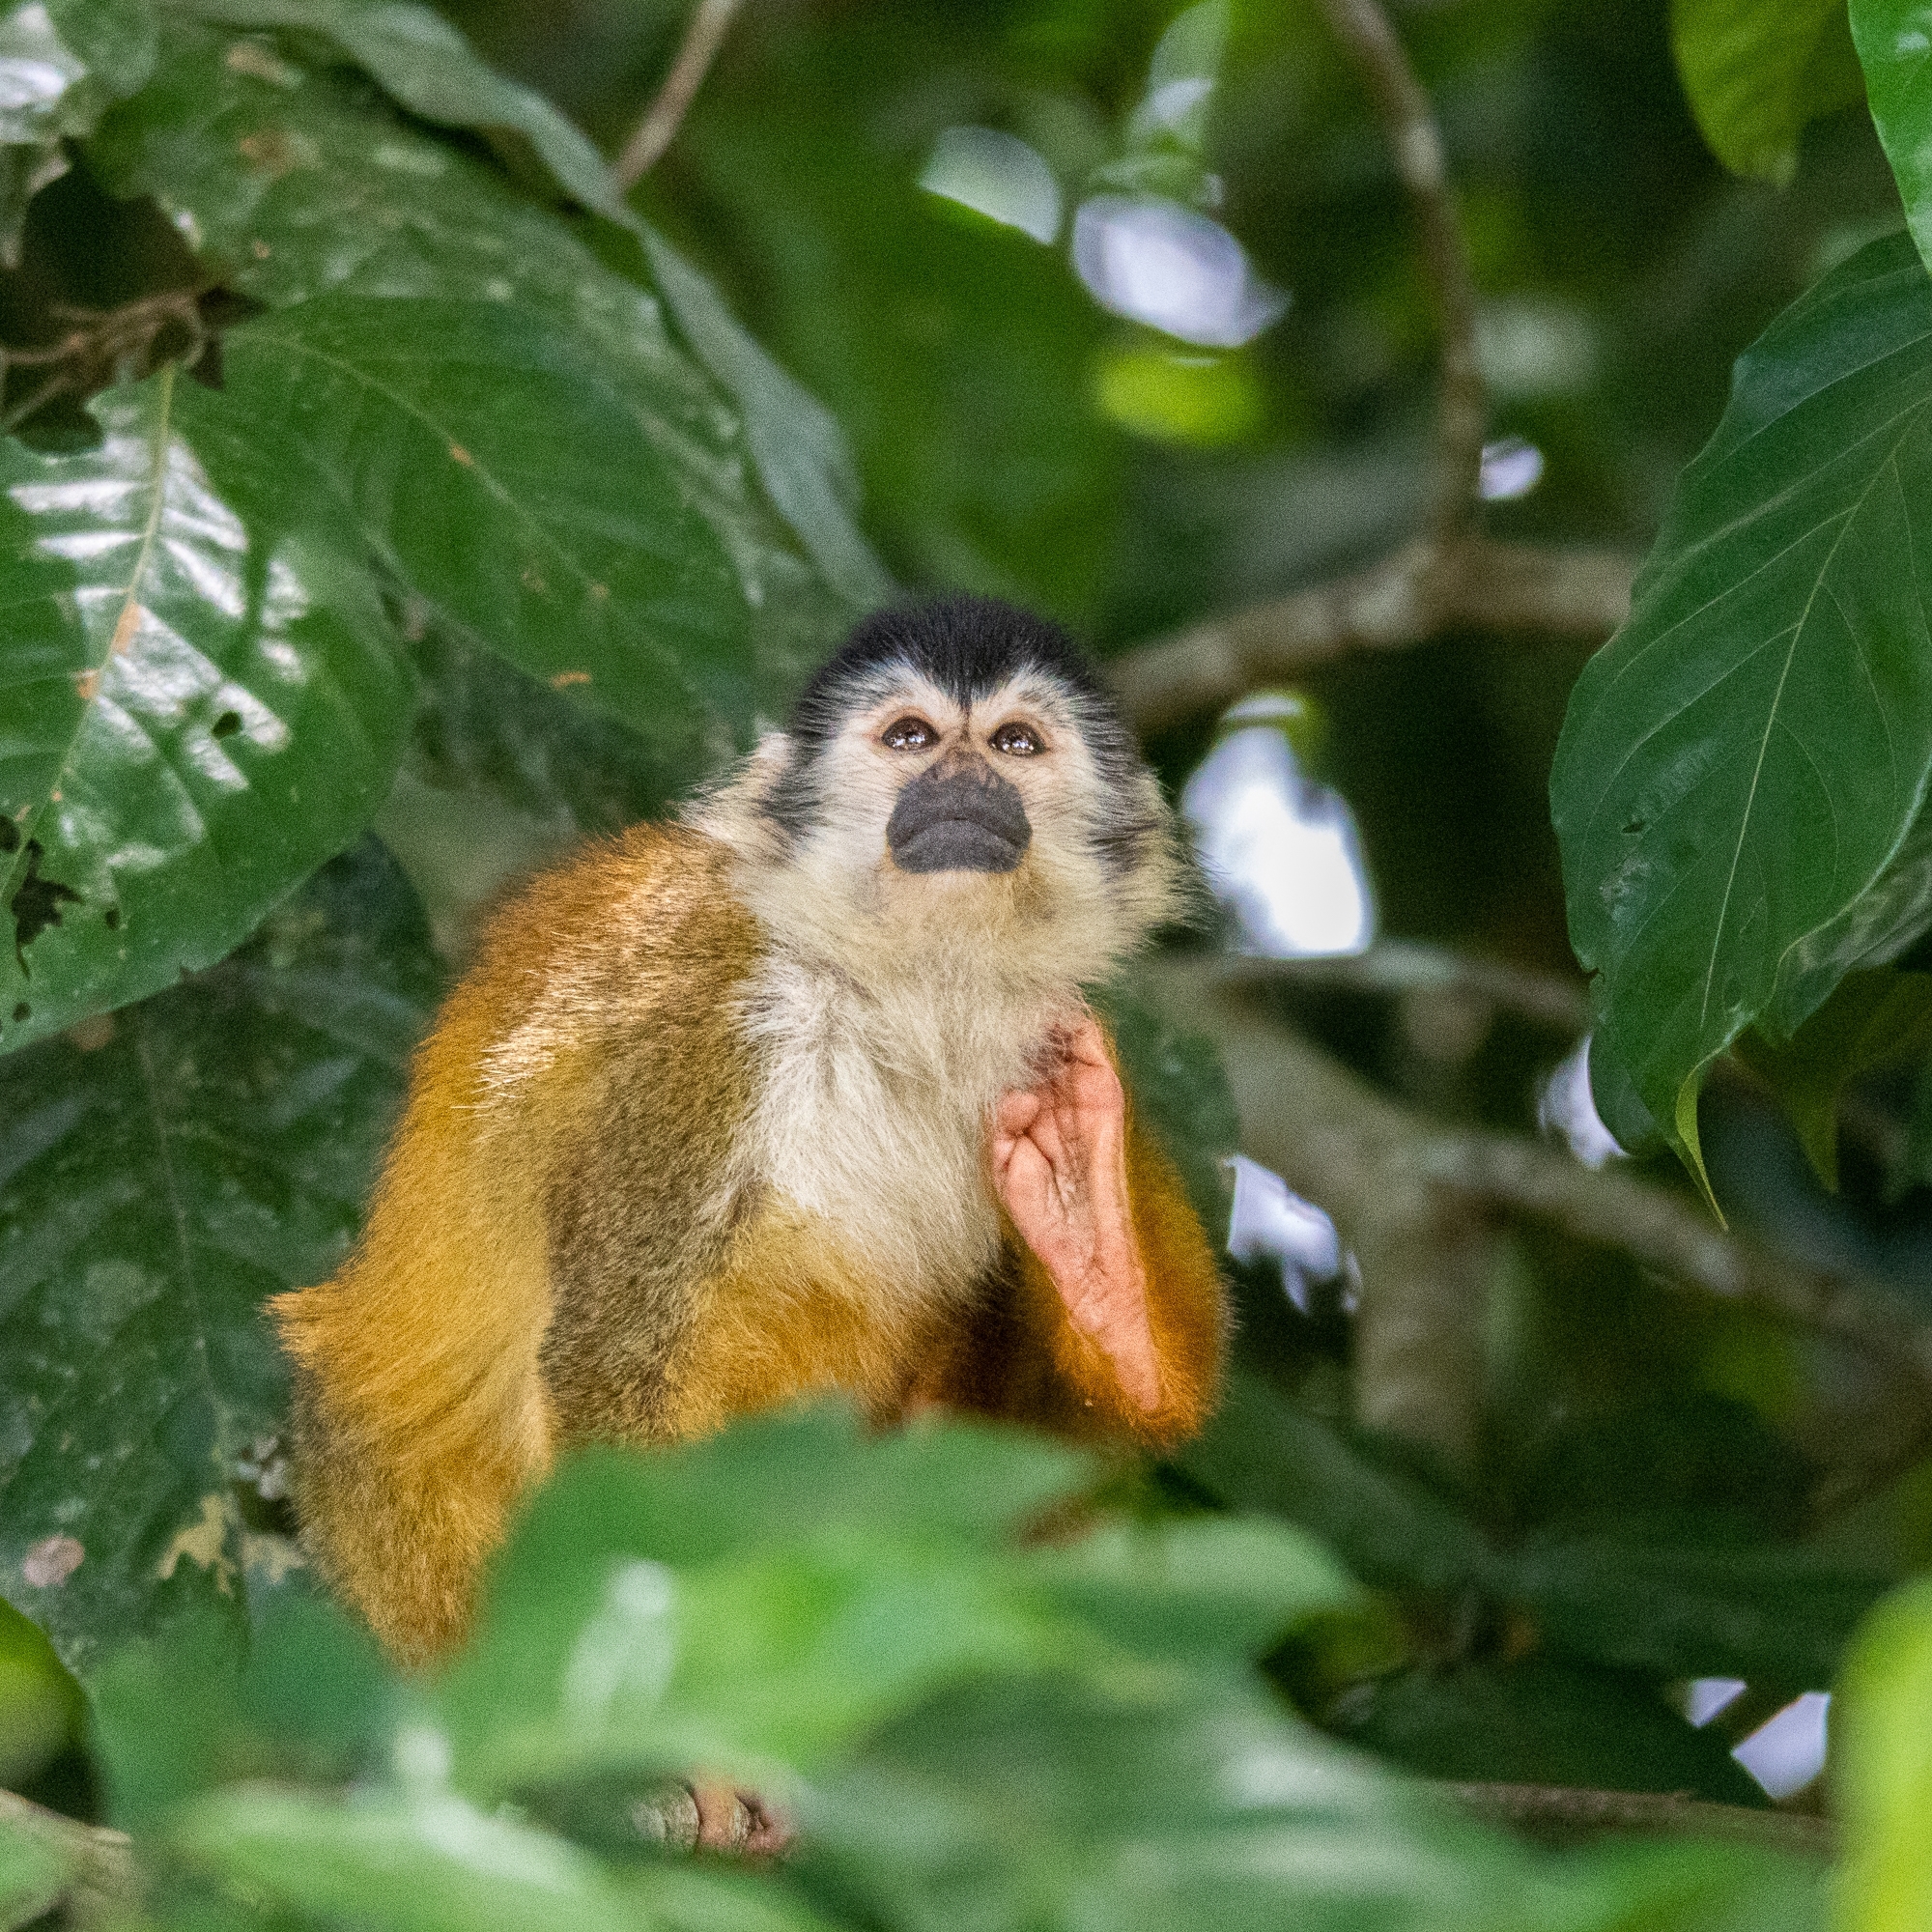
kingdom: Animalia
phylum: Chordata
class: Mammalia
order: Primates
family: Cebidae
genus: Saimiri
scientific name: Saimiri oerstedii
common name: Central american squirrel monkey
